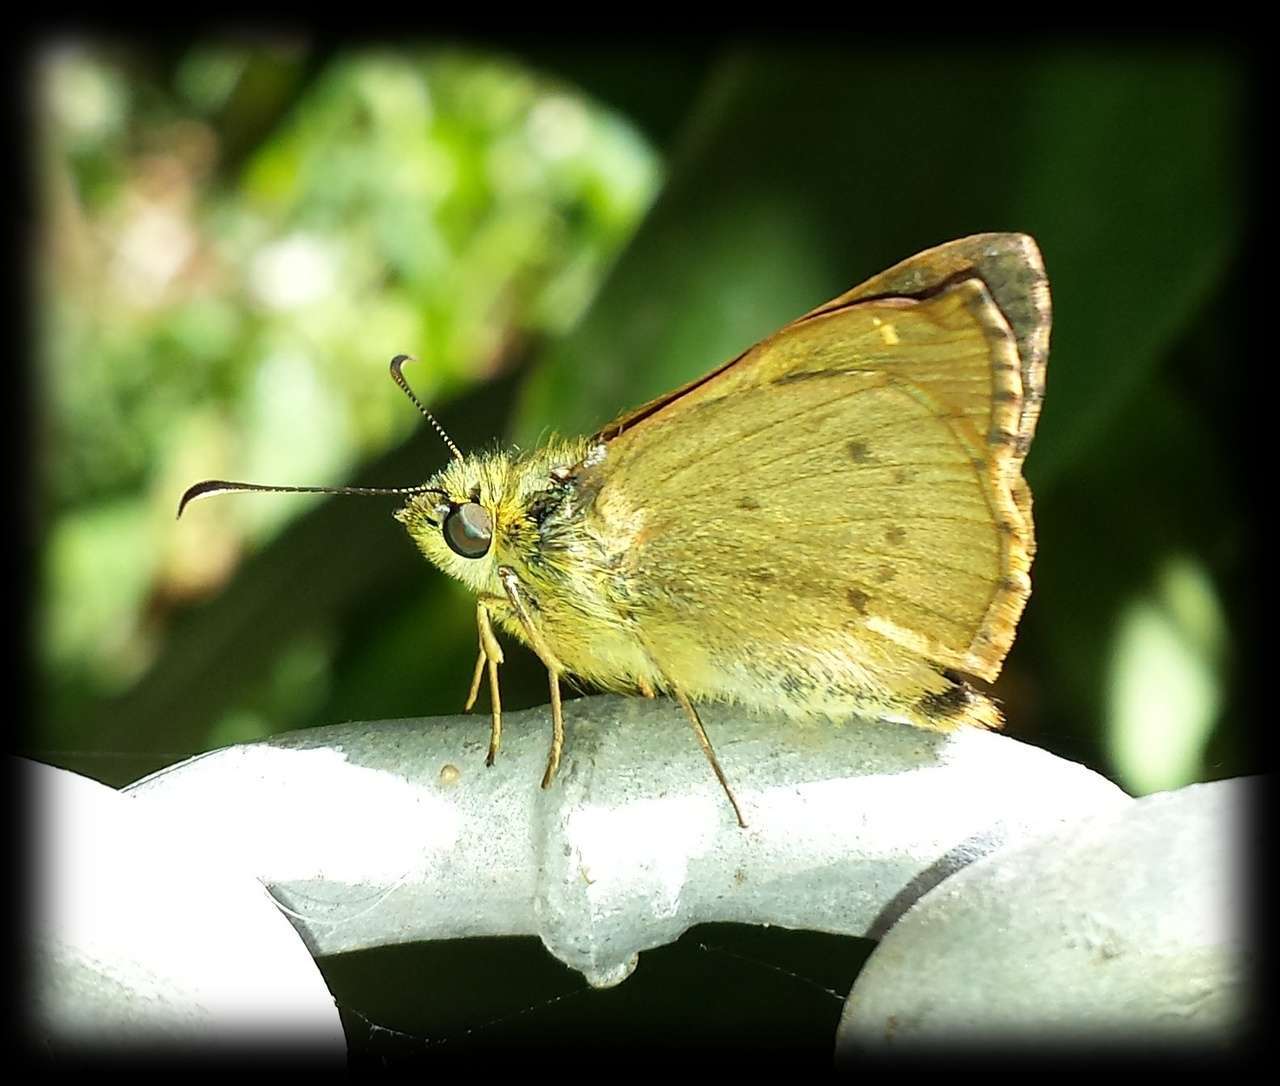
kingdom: Animalia
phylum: Arthropoda
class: Insecta
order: Lepidoptera
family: Hesperiidae
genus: Toxidia
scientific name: Toxidia
